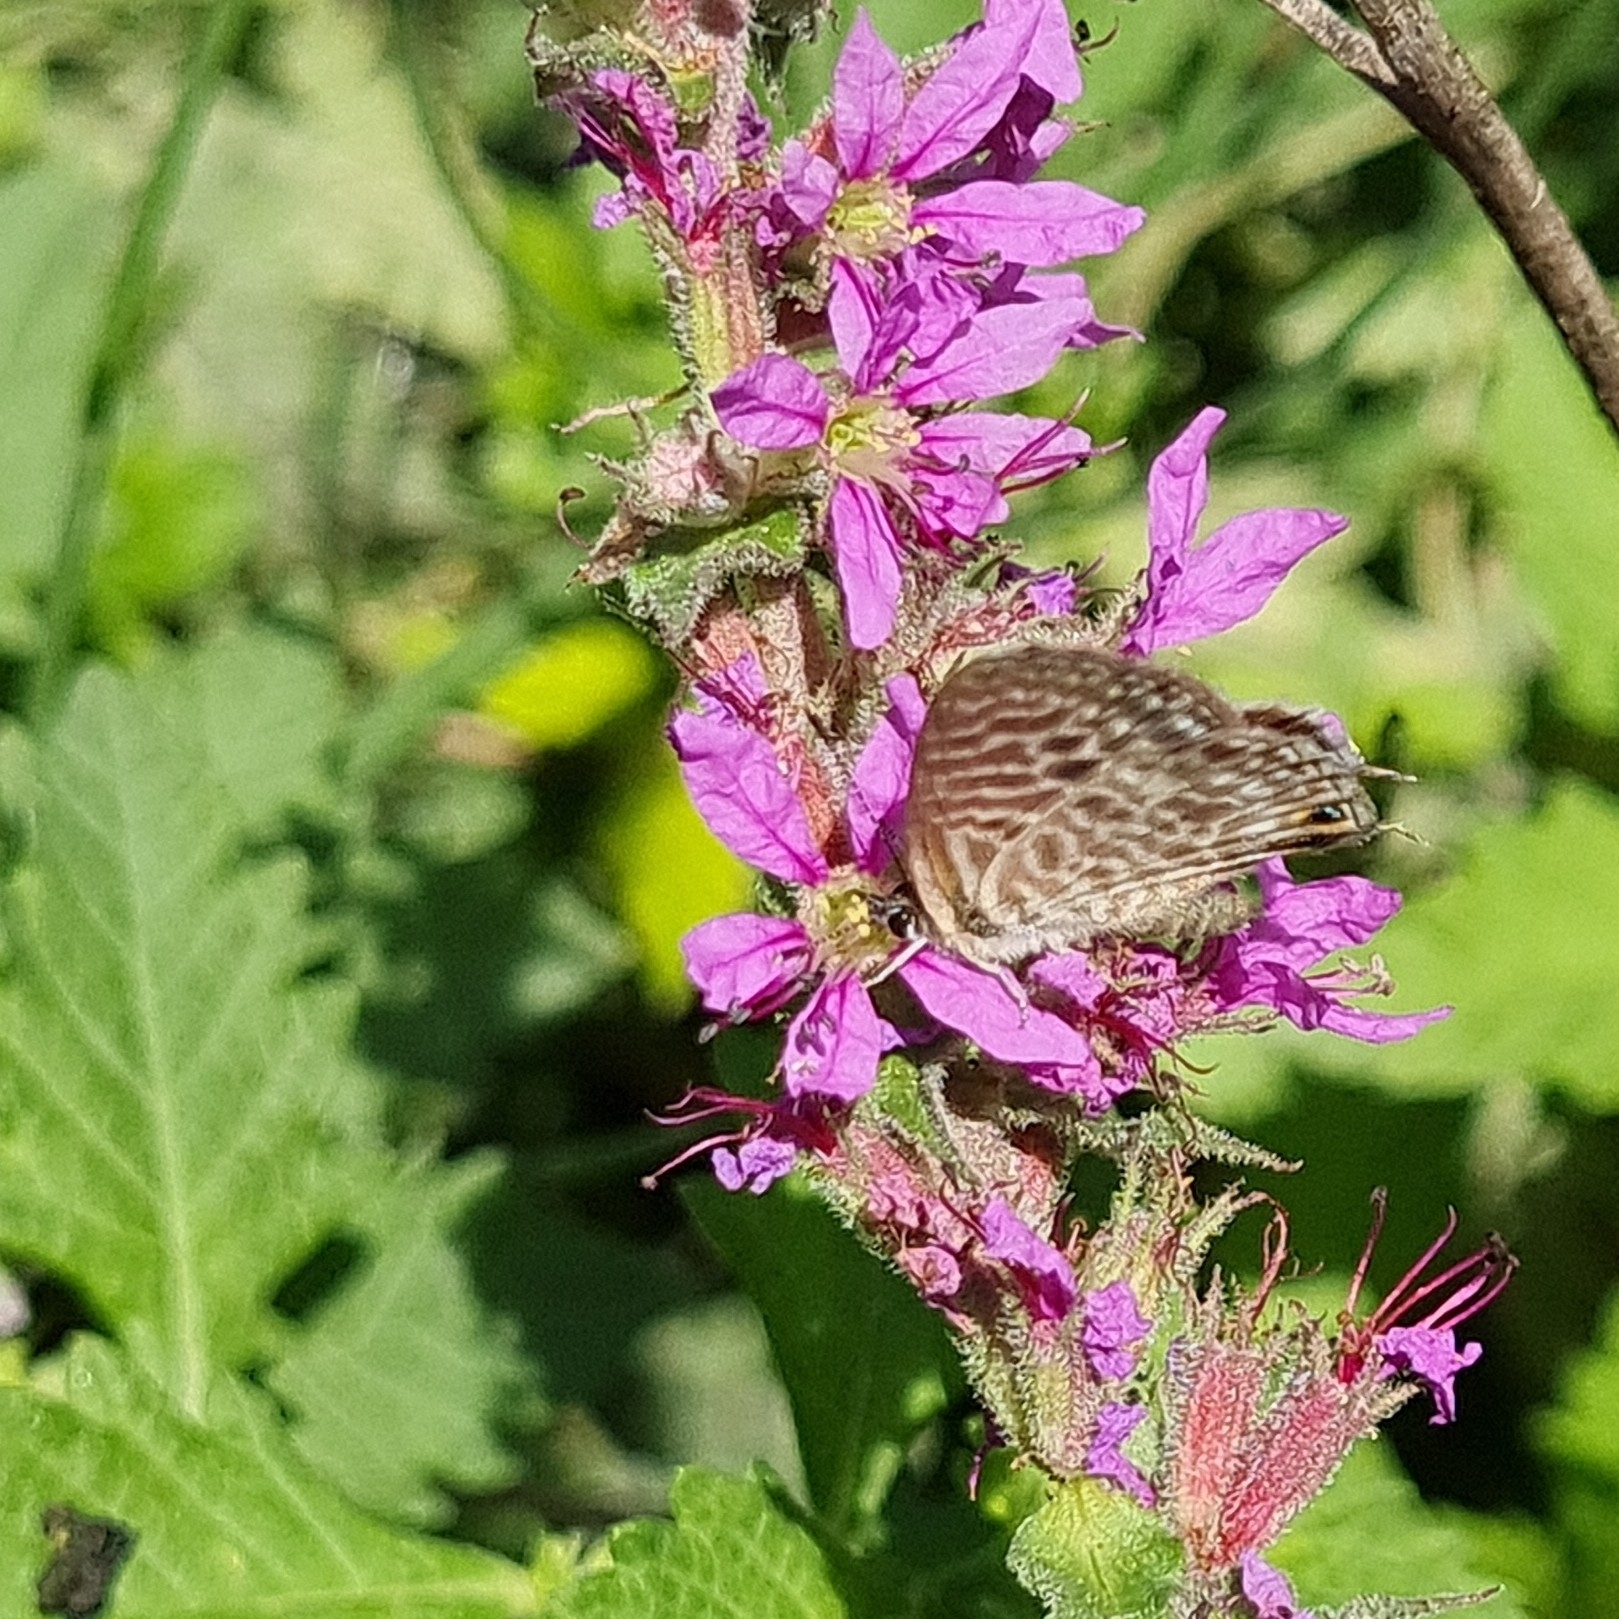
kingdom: Animalia
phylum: Arthropoda
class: Insecta
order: Lepidoptera
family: Lycaenidae
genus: Leptotes
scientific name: Leptotes pirithous
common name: Lang's short-tailed blue
